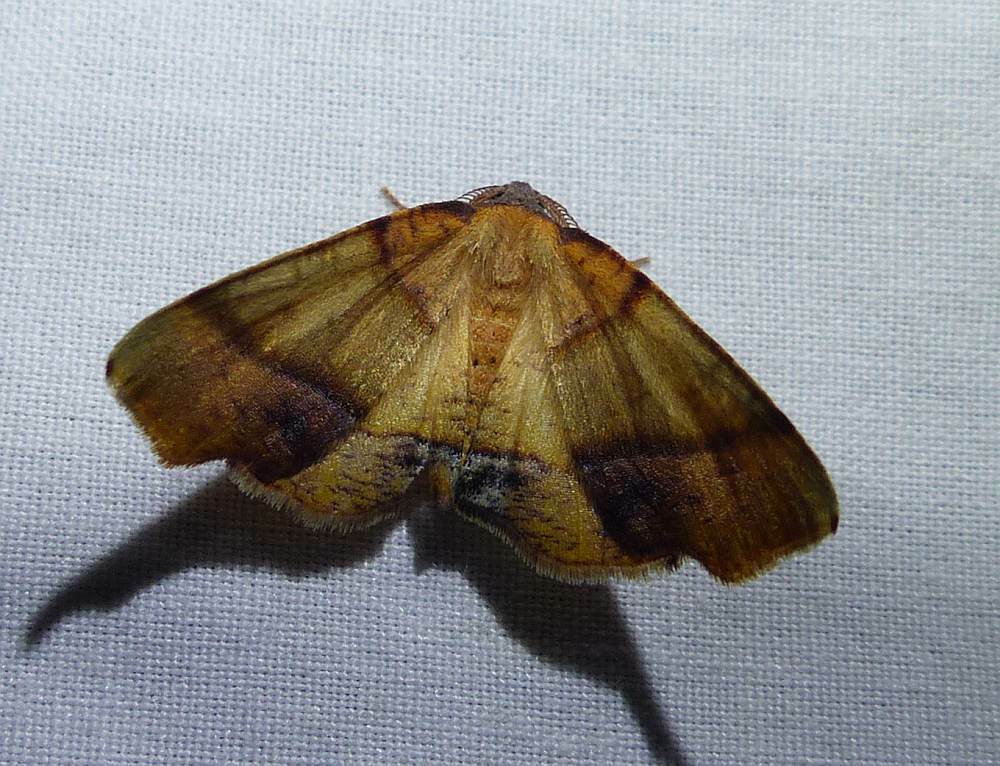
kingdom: Animalia
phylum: Arthropoda
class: Insecta
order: Lepidoptera
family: Geometridae
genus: Plagodis
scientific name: Plagodis phlogosaria
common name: Straight-lined plagodis
